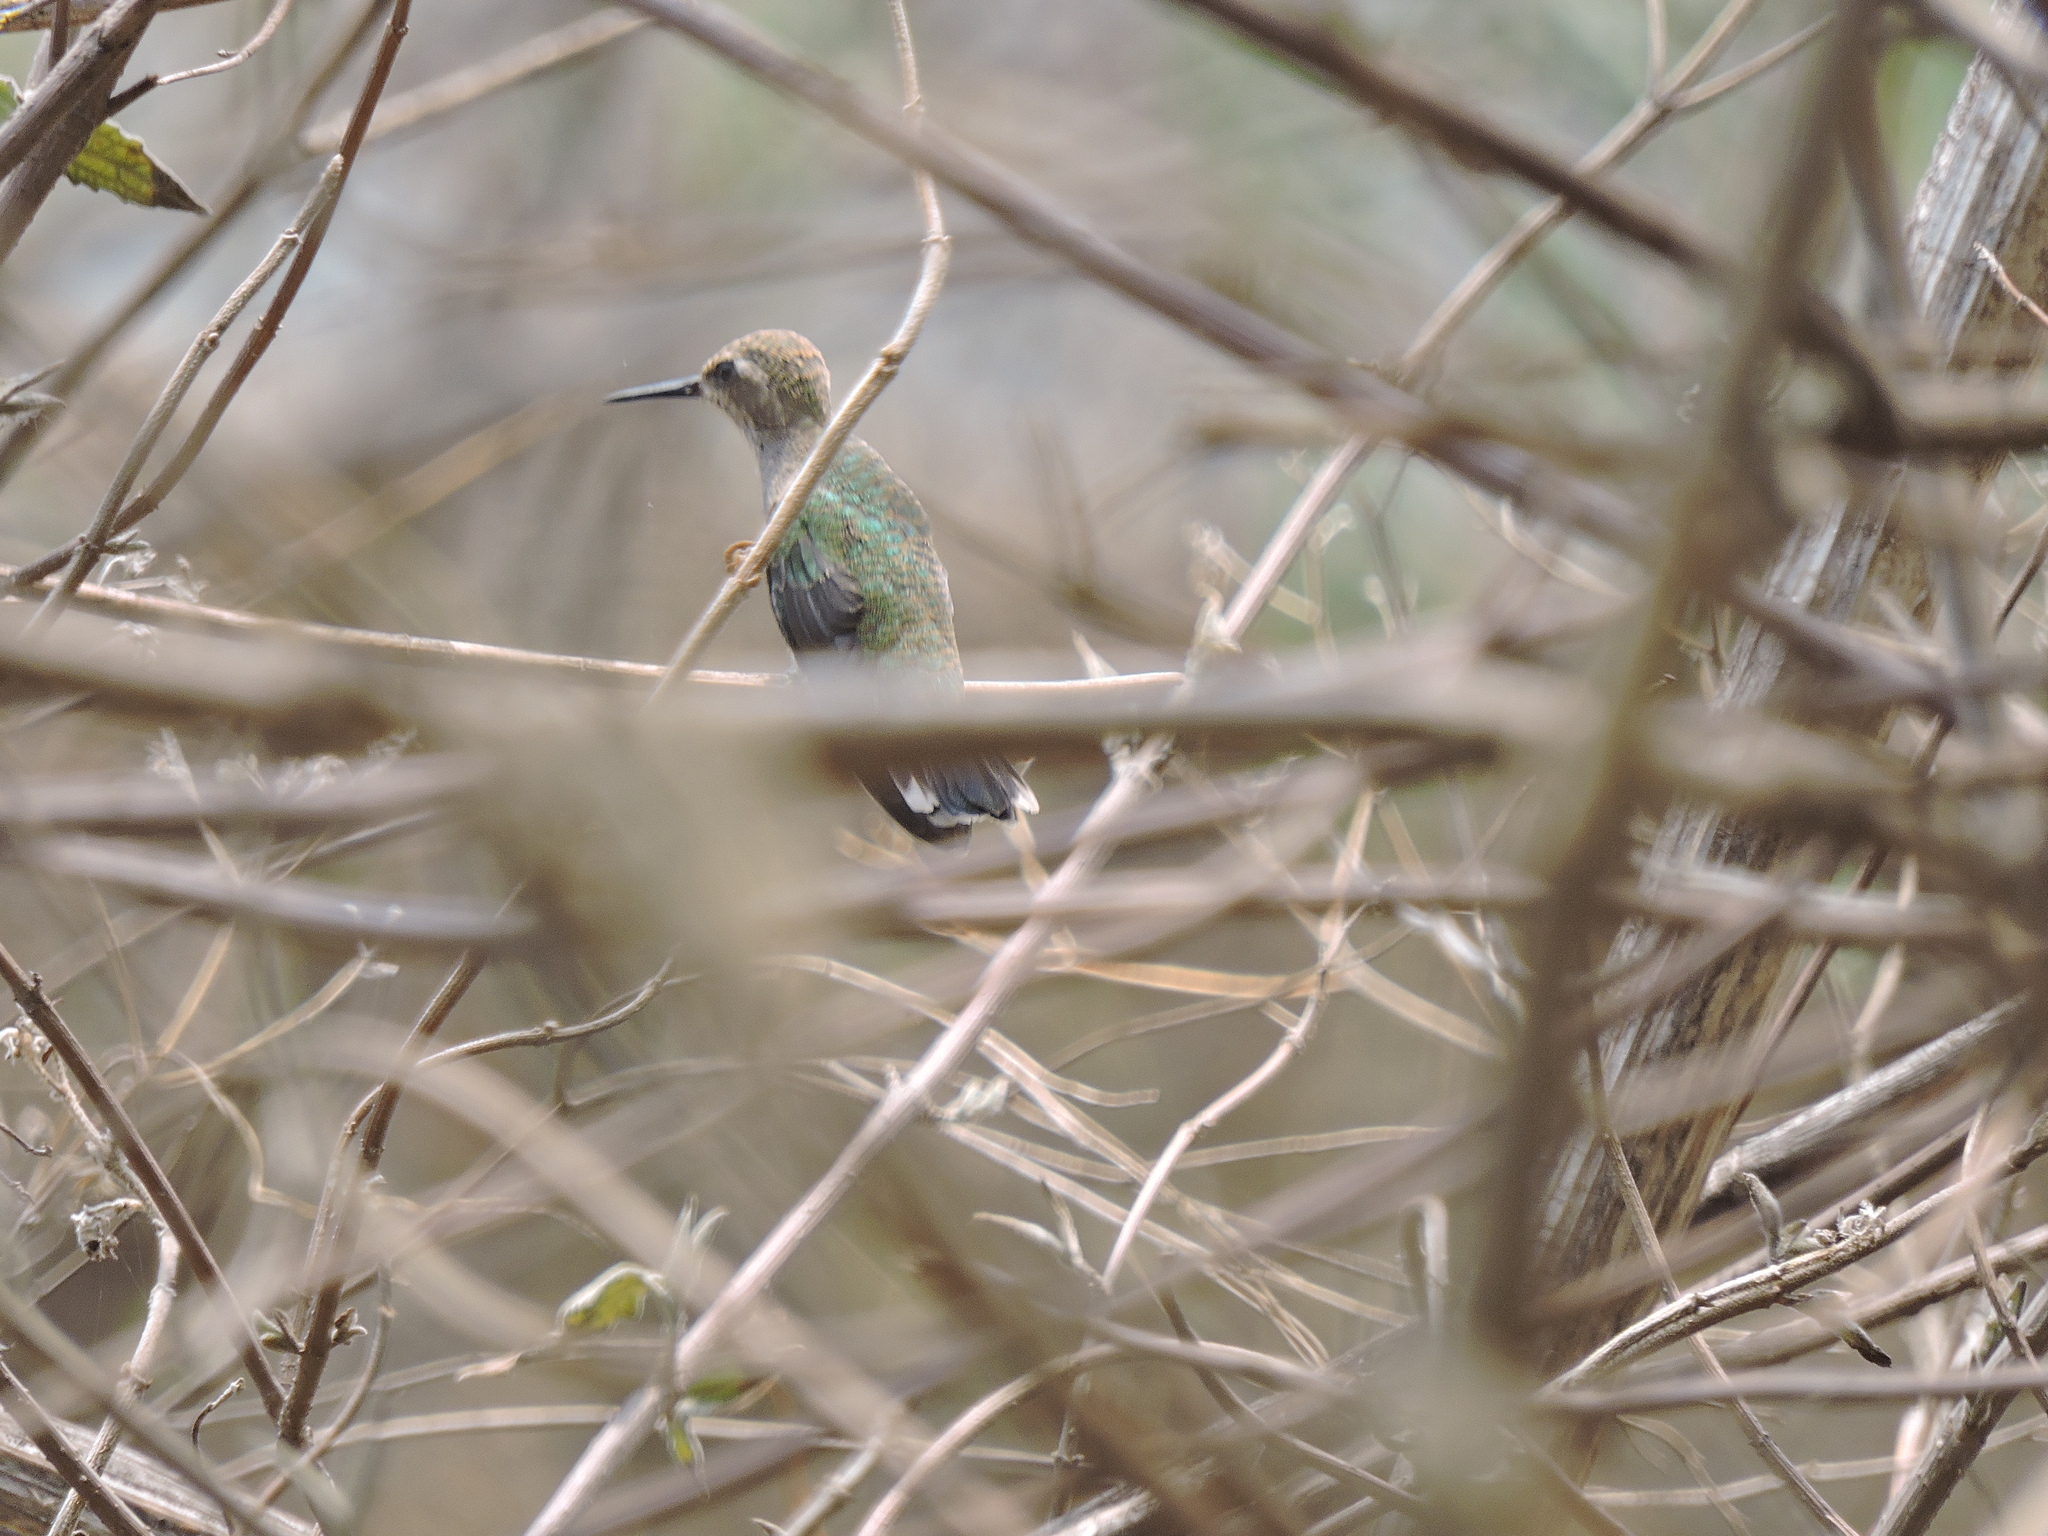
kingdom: Animalia
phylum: Chordata
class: Aves
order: Apodiformes
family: Trochilidae
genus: Lampornis
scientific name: Lampornis clemenciae
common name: Blue-throated mountaingem
